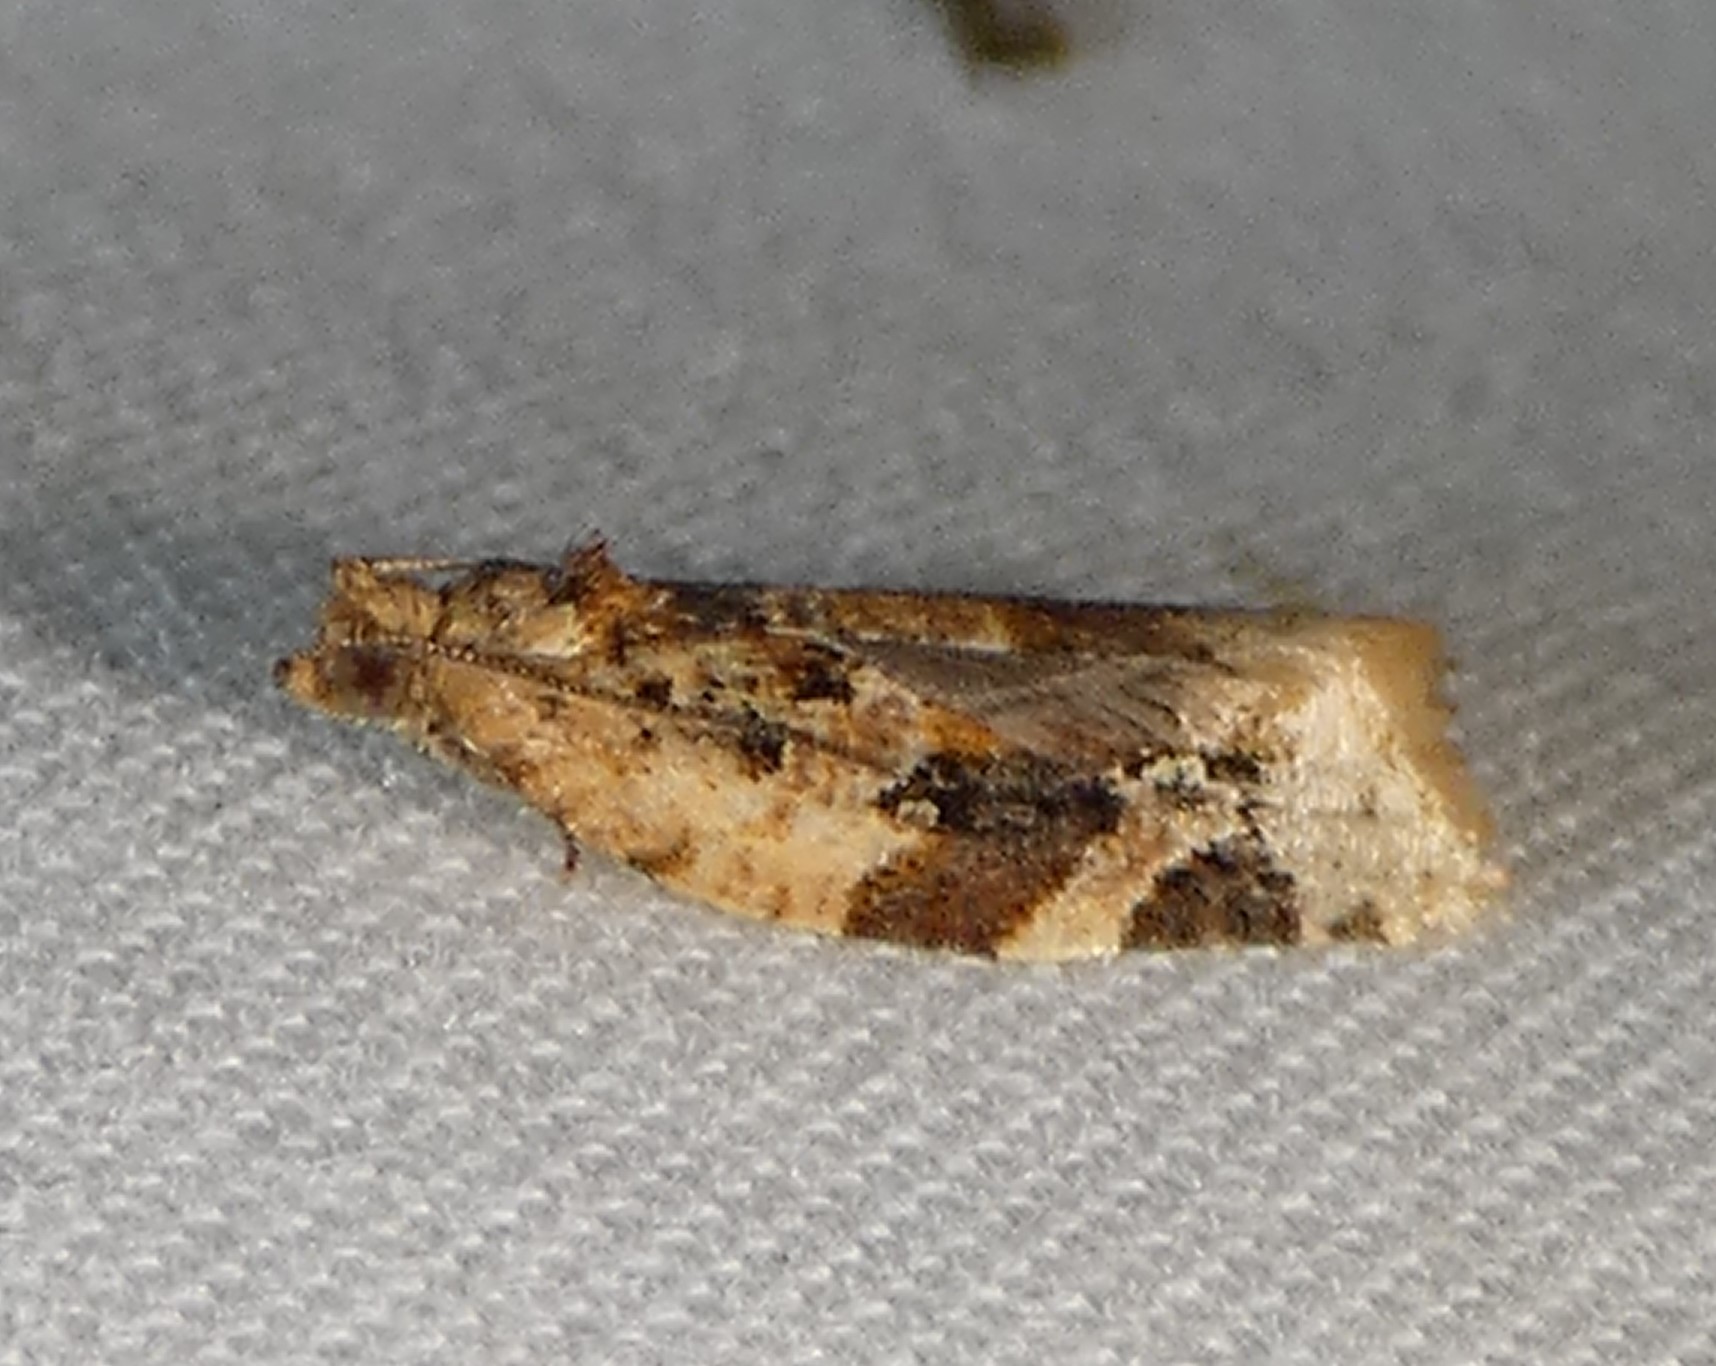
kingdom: Animalia
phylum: Arthropoda
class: Insecta
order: Lepidoptera
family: Tortricidae
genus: Argyrotaenia
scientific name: Argyrotaenia velutinana
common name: Red-banded leafroller moth
